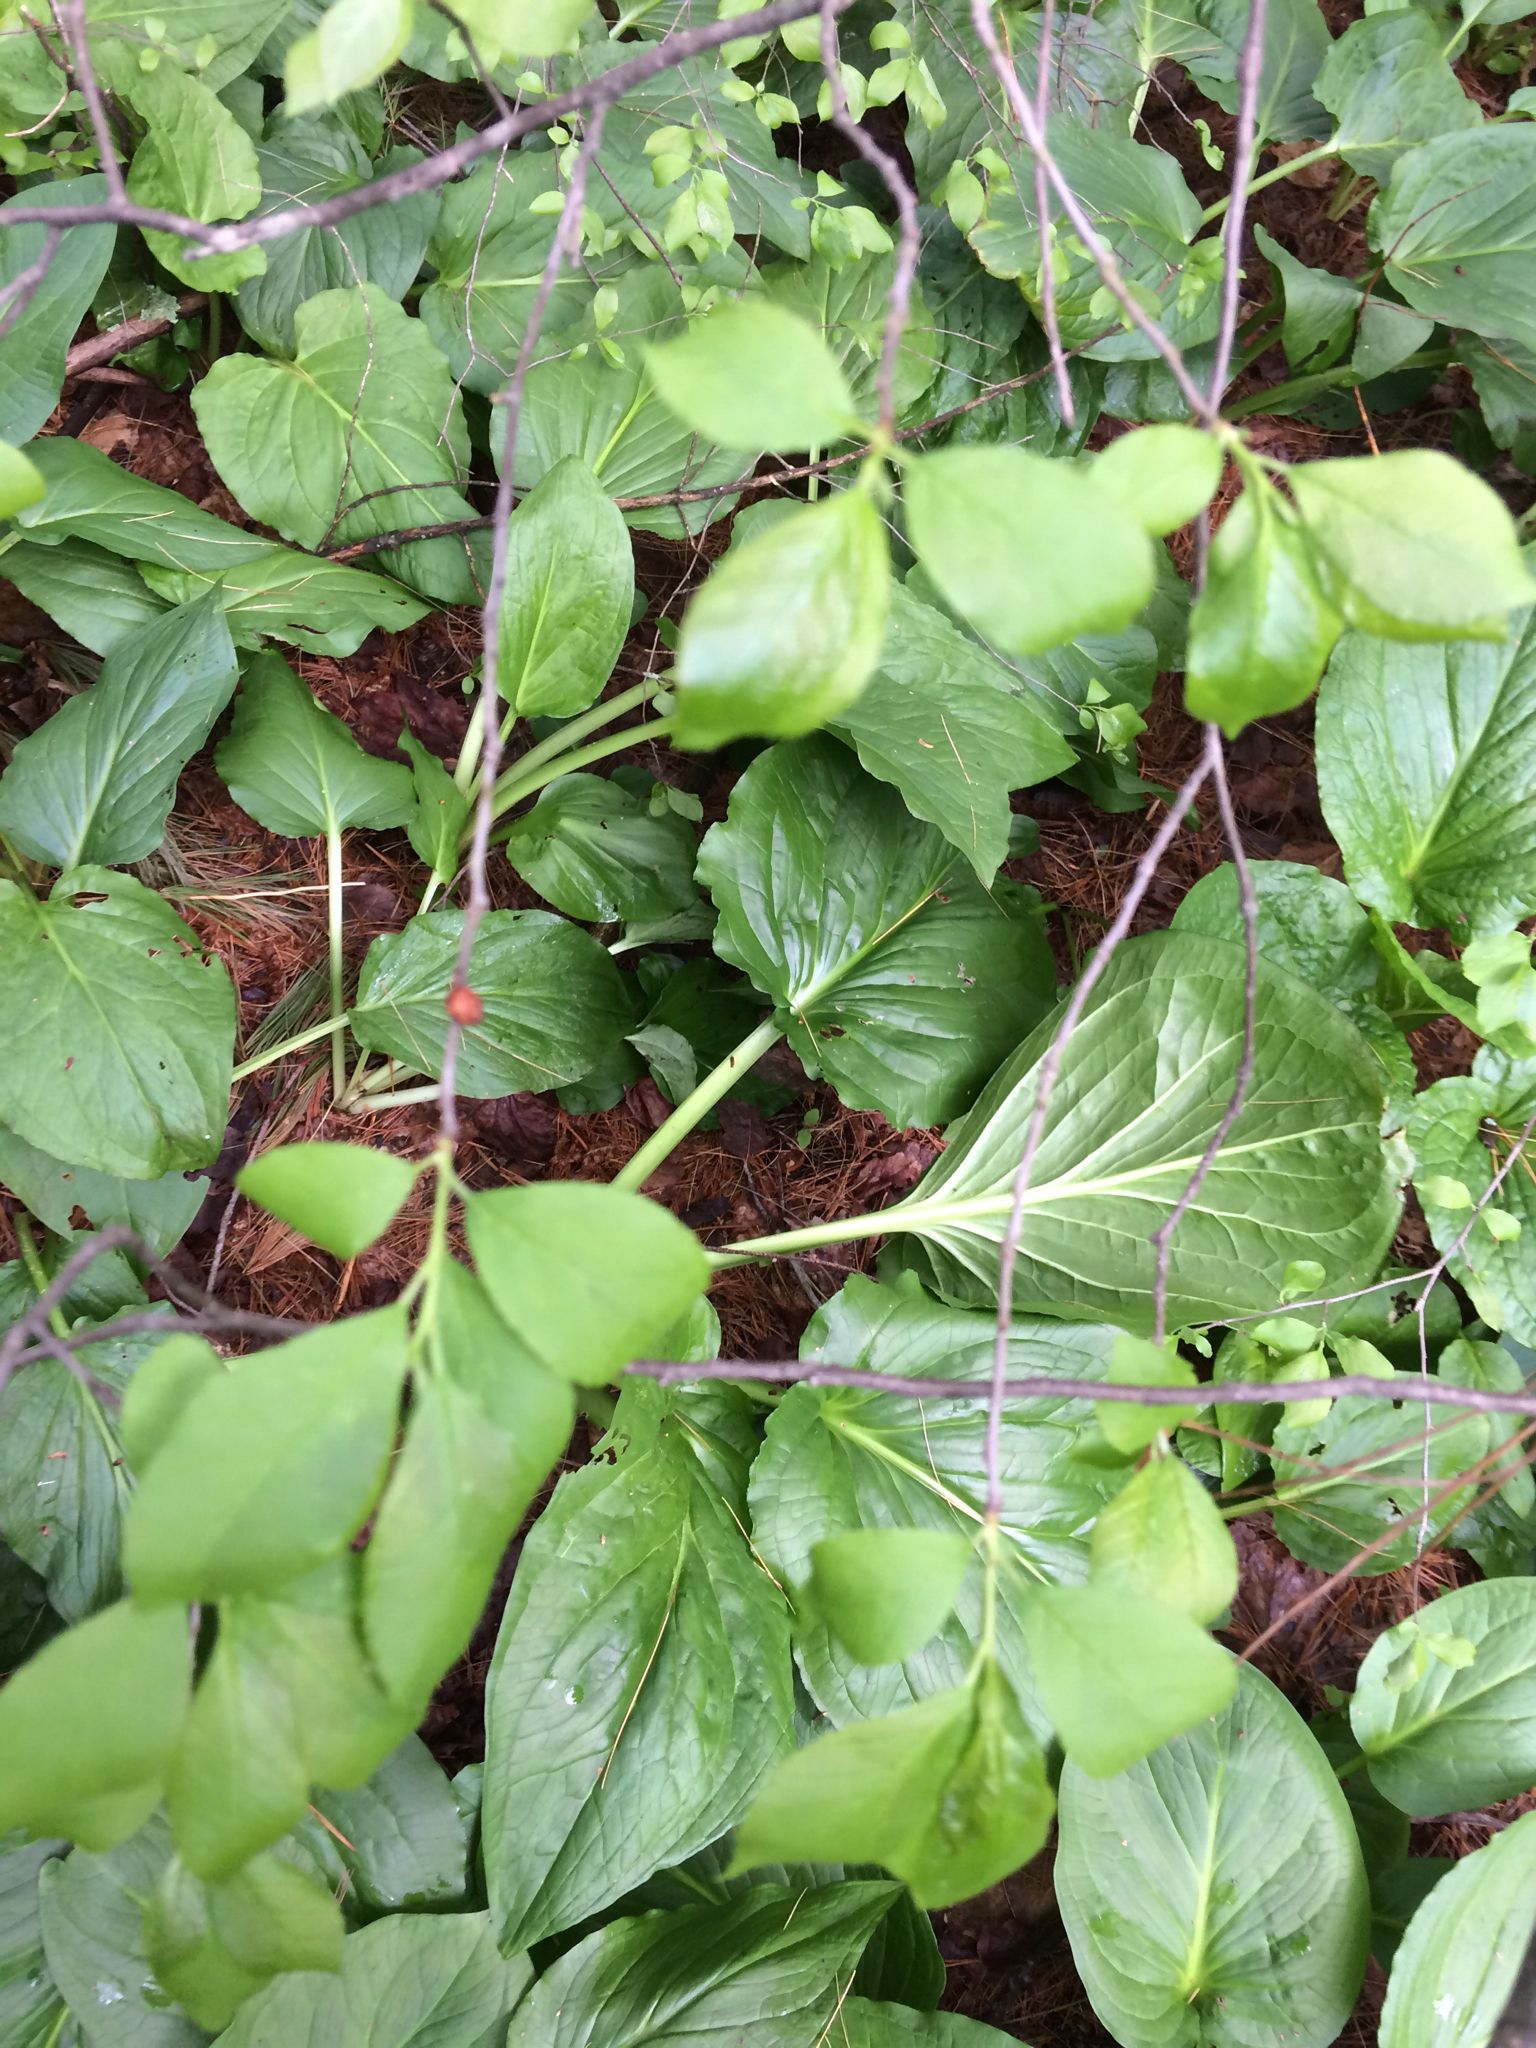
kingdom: Plantae
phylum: Tracheophyta
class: Magnoliopsida
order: Aquifoliales
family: Aquifoliaceae
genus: Ilex
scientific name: Ilex verticillata
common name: Virginia winterberry
